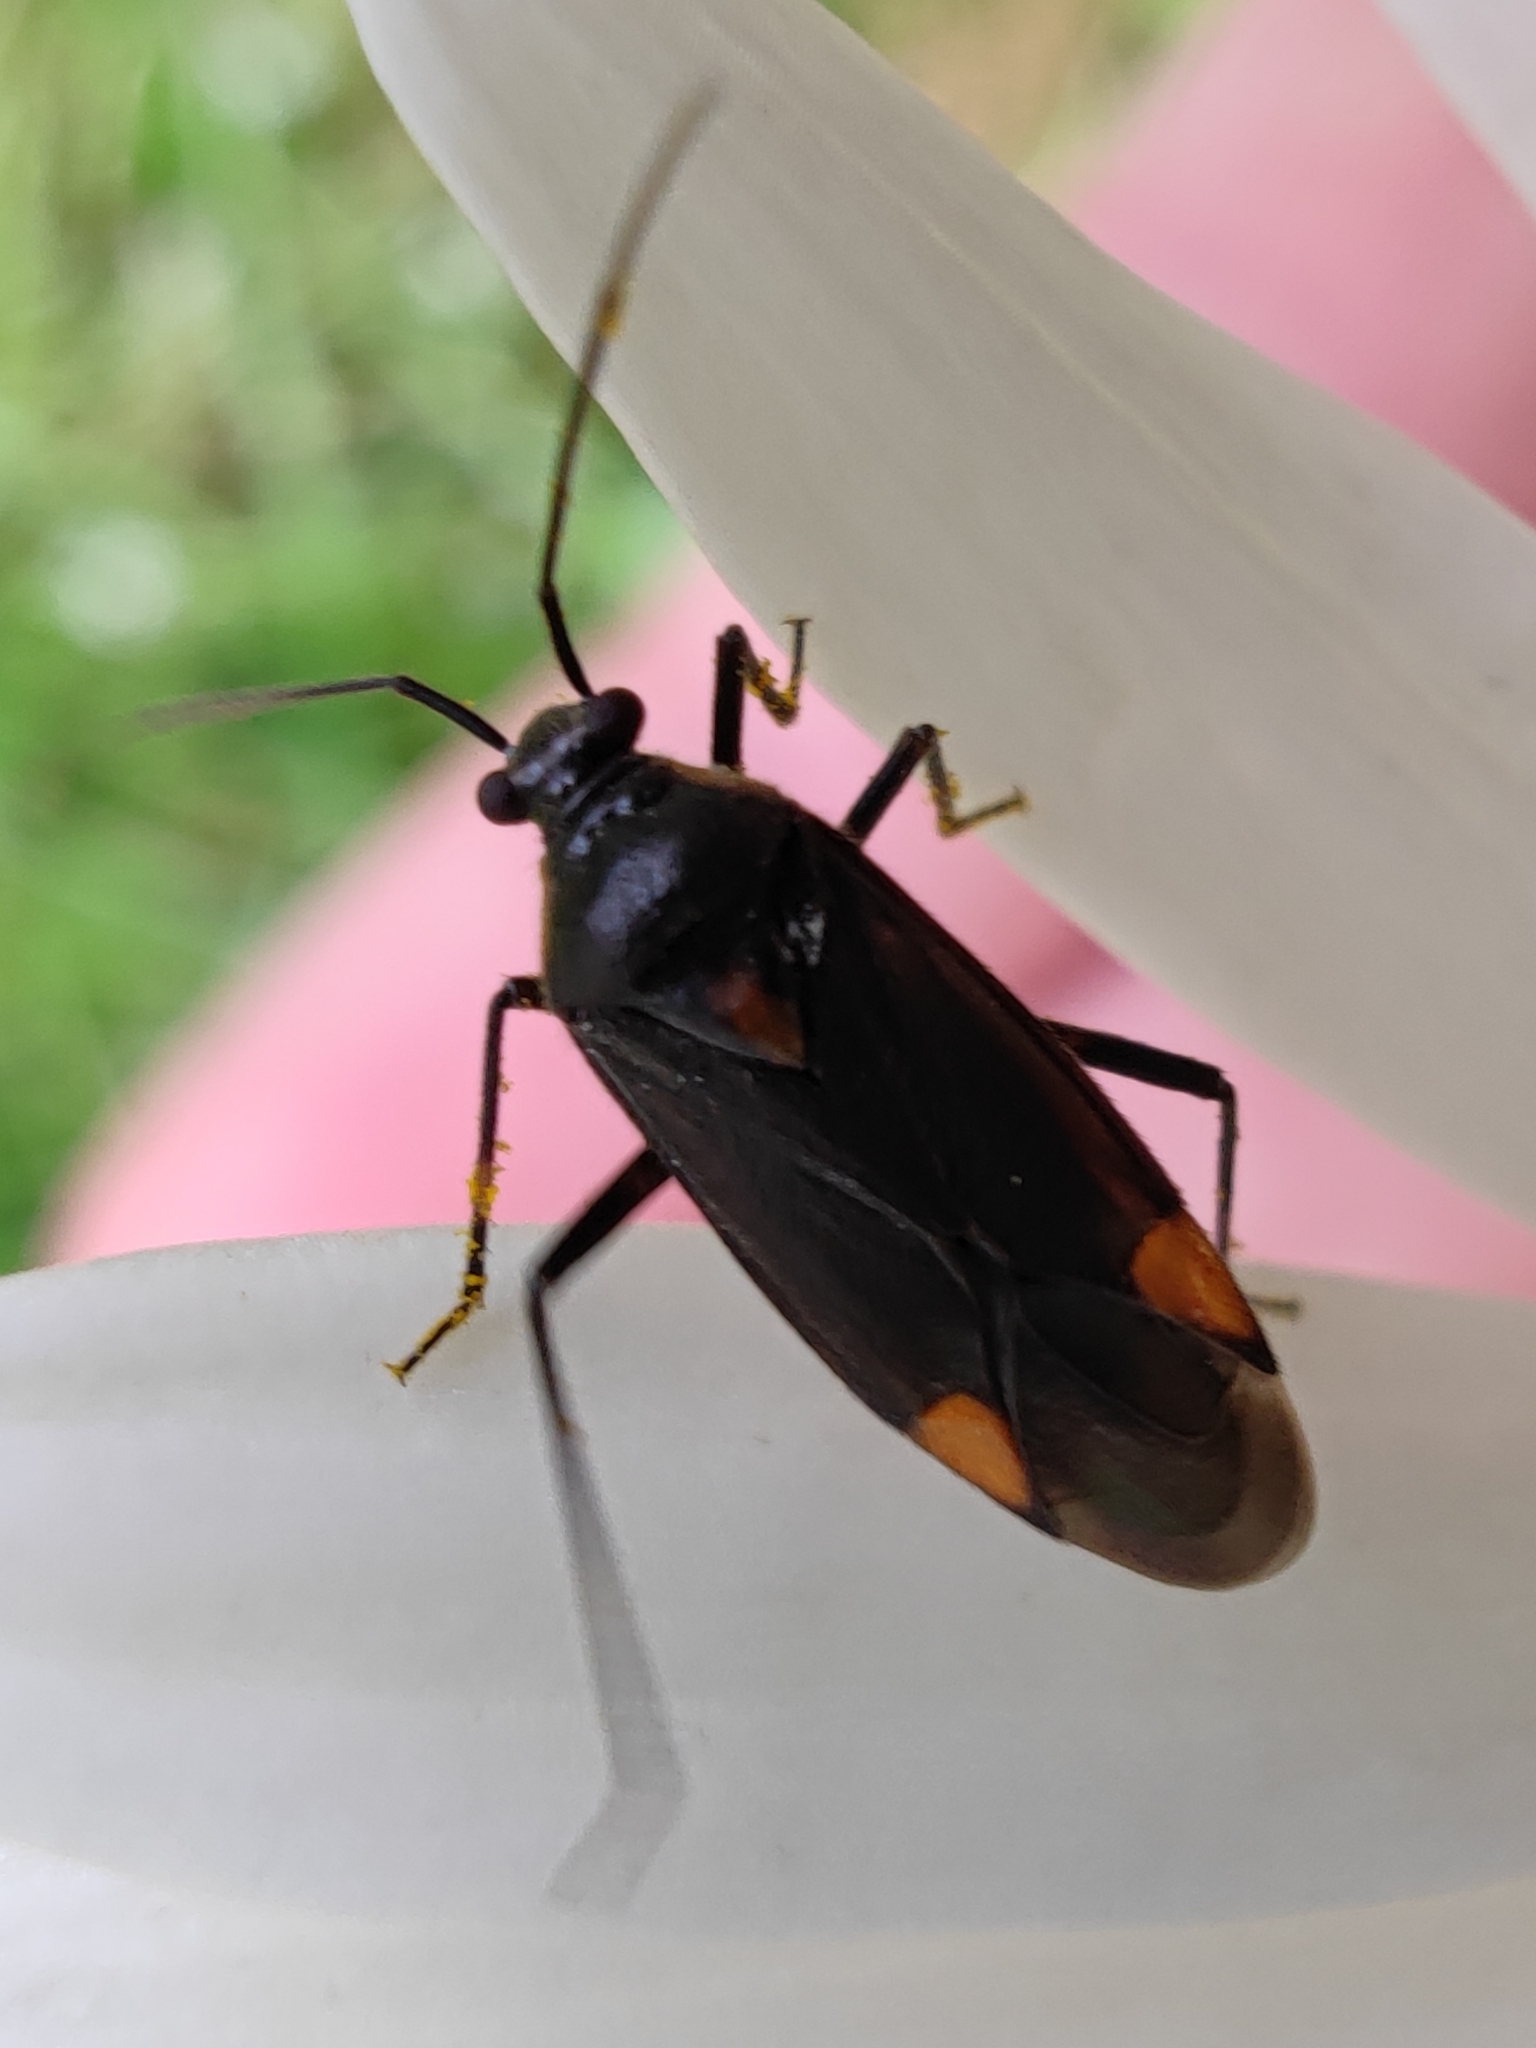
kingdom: Animalia
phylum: Arthropoda
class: Insecta
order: Hemiptera
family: Miridae
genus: Capsodes
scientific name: Capsodes flavomarginatus
